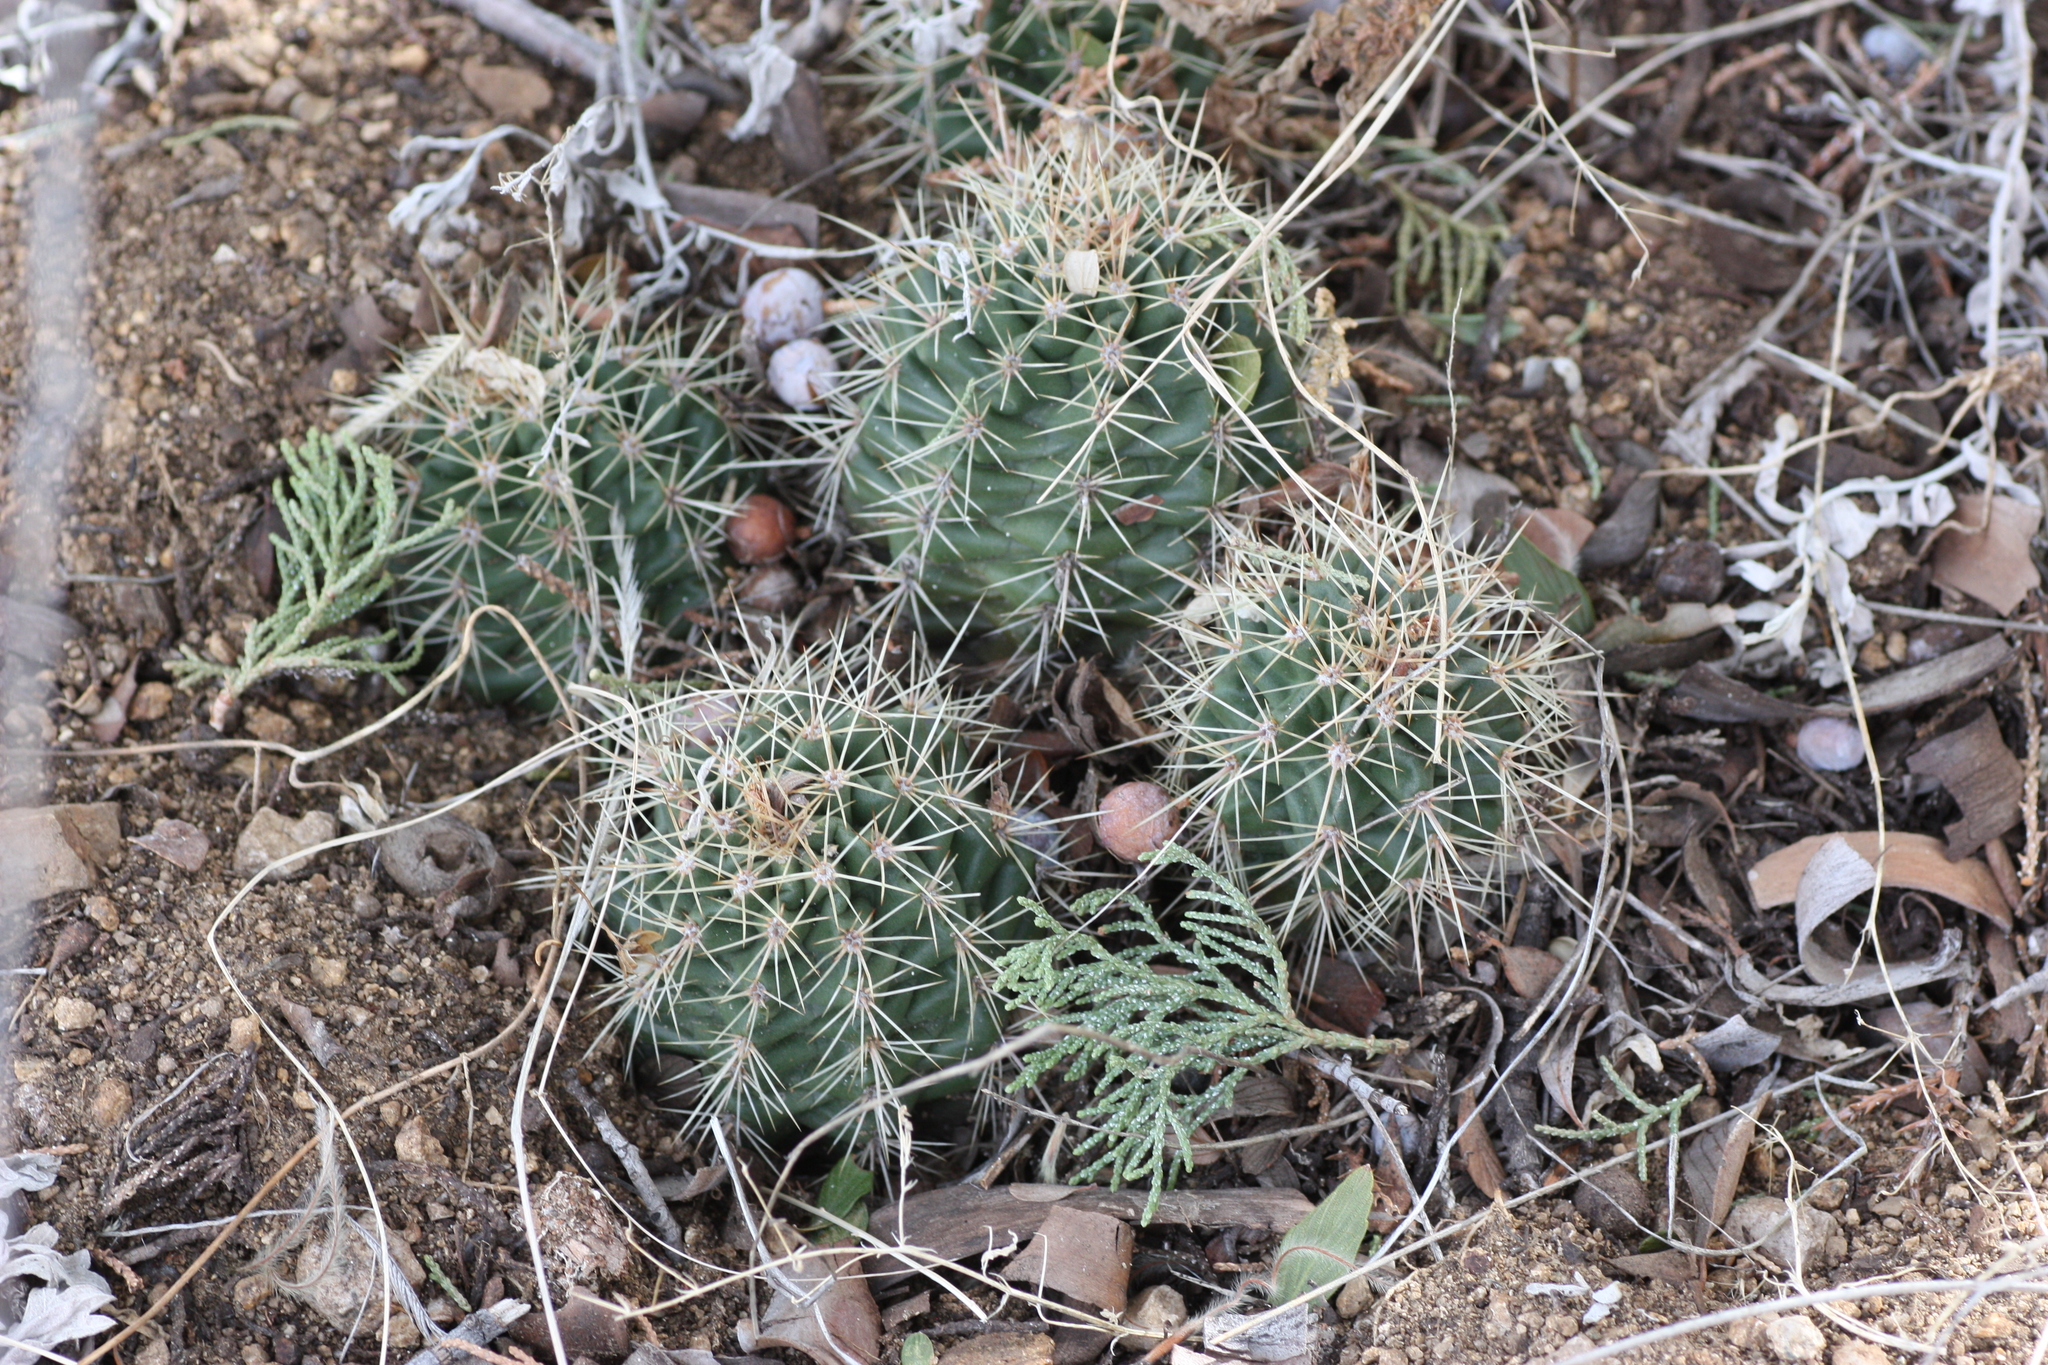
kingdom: Plantae
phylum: Tracheophyta
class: Magnoliopsida
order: Caryophyllales
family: Cactaceae
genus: Echinocereus
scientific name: Echinocereus coccineus
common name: Scarlet hedgehog cactus
